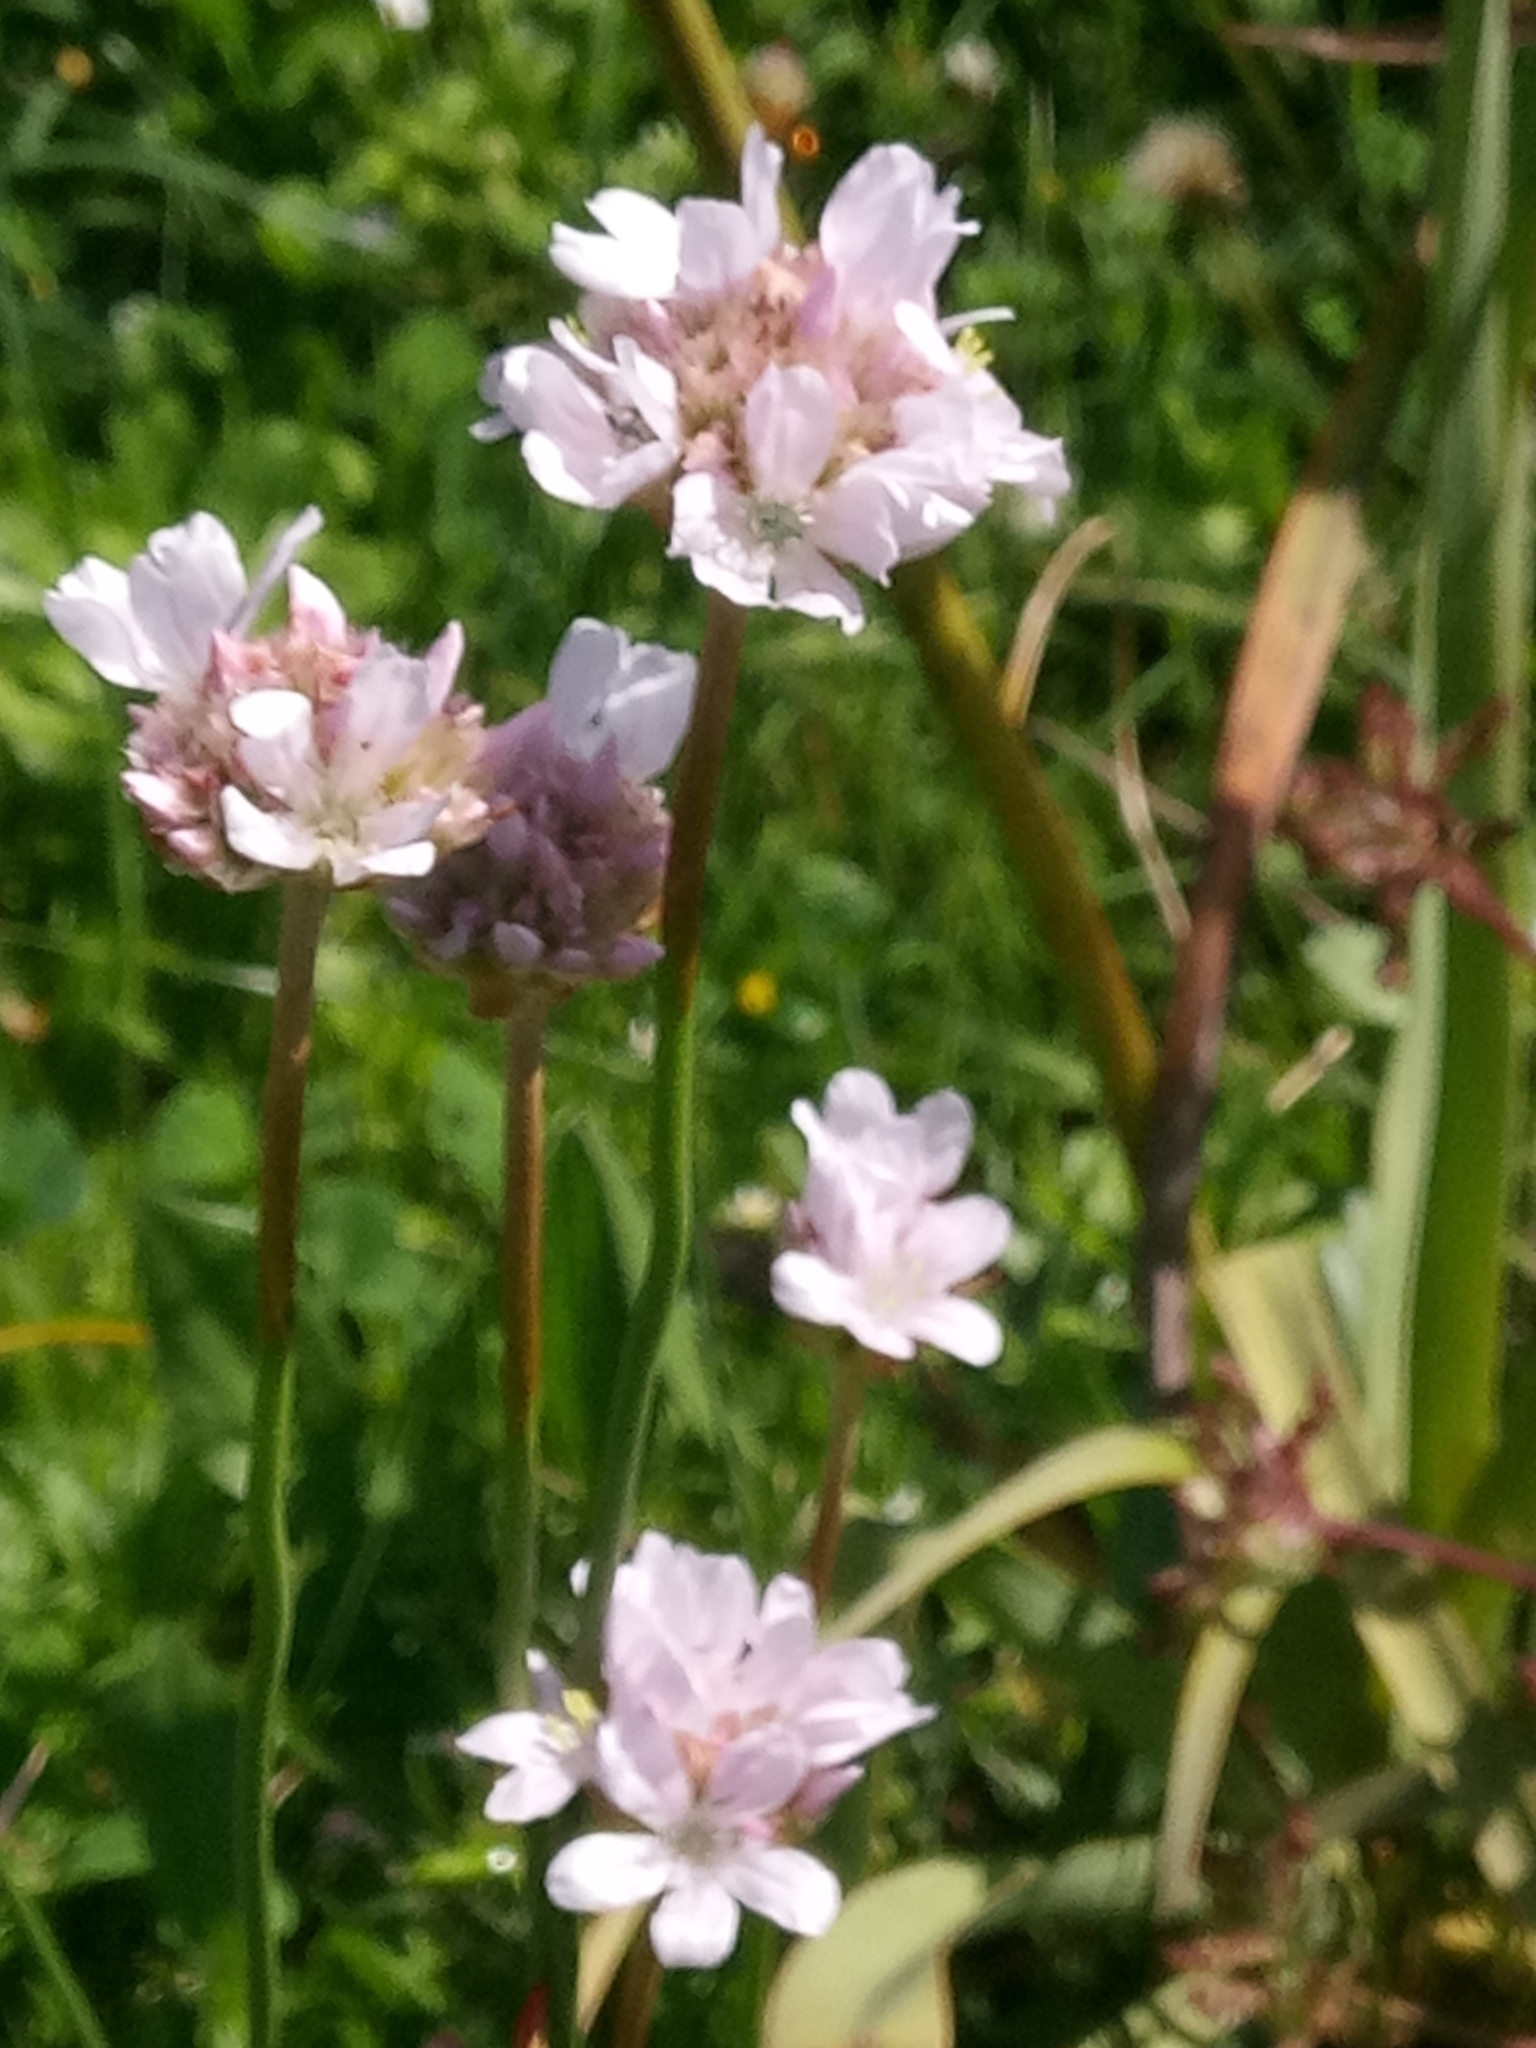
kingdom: Plantae
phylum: Tracheophyta
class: Magnoliopsida
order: Caryophyllales
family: Plumbaginaceae
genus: Armeria
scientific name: Armeria choulettiana
